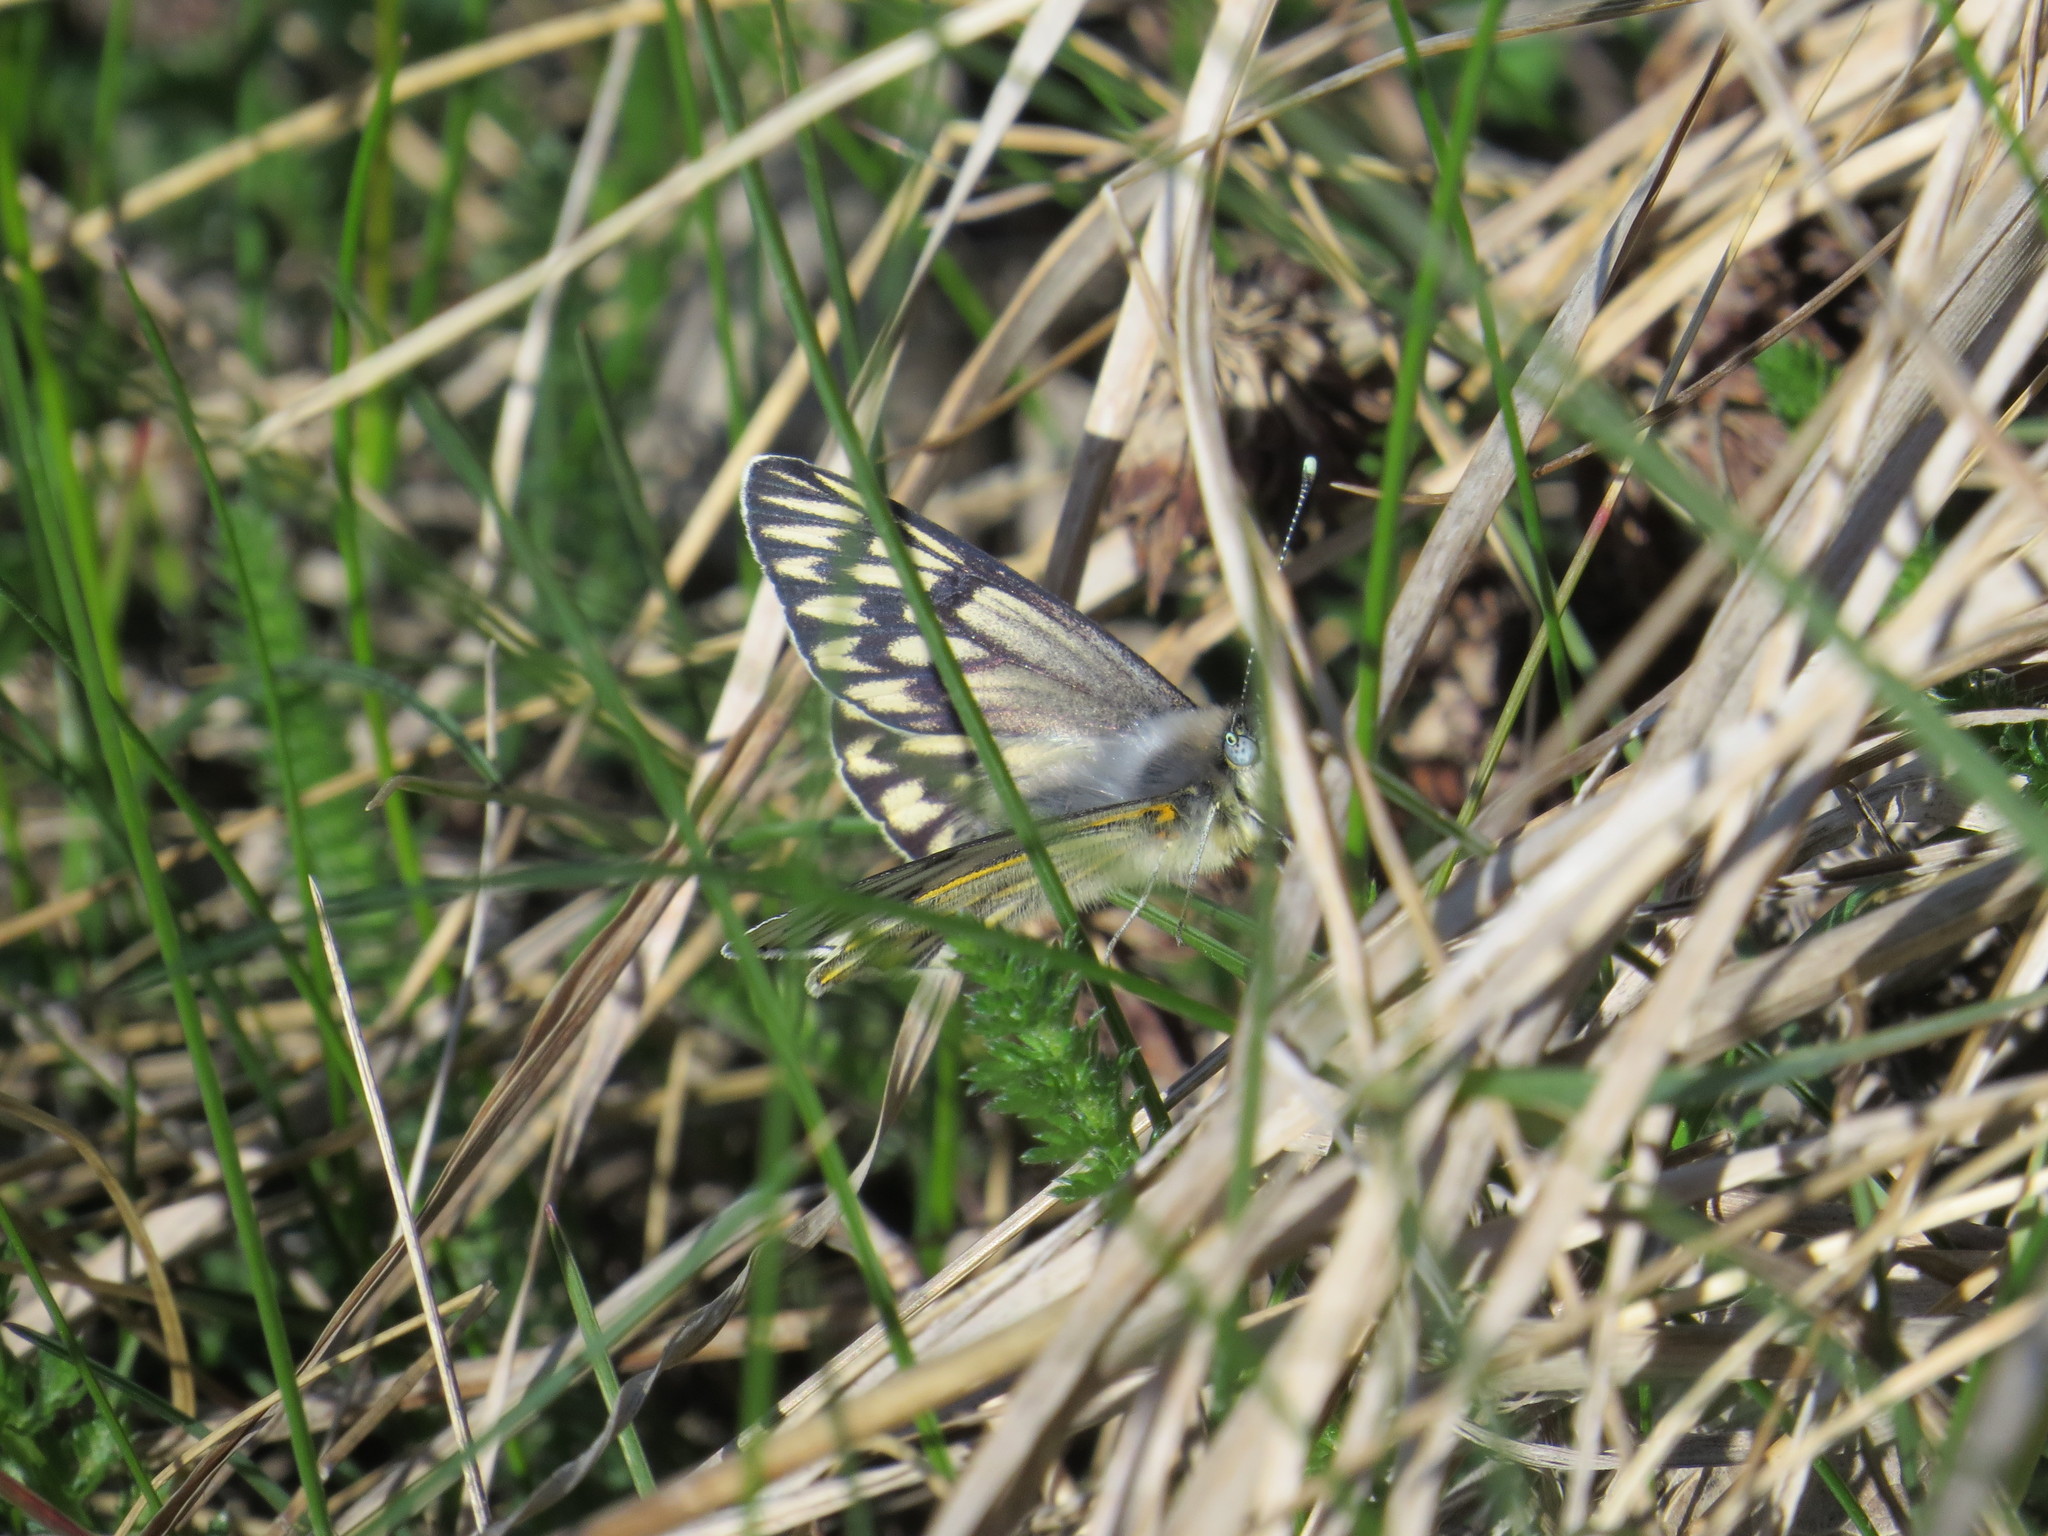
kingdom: Animalia
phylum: Arthropoda
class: Insecta
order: Lepidoptera
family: Pieridae
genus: Tatochila
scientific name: Tatochila theodice
